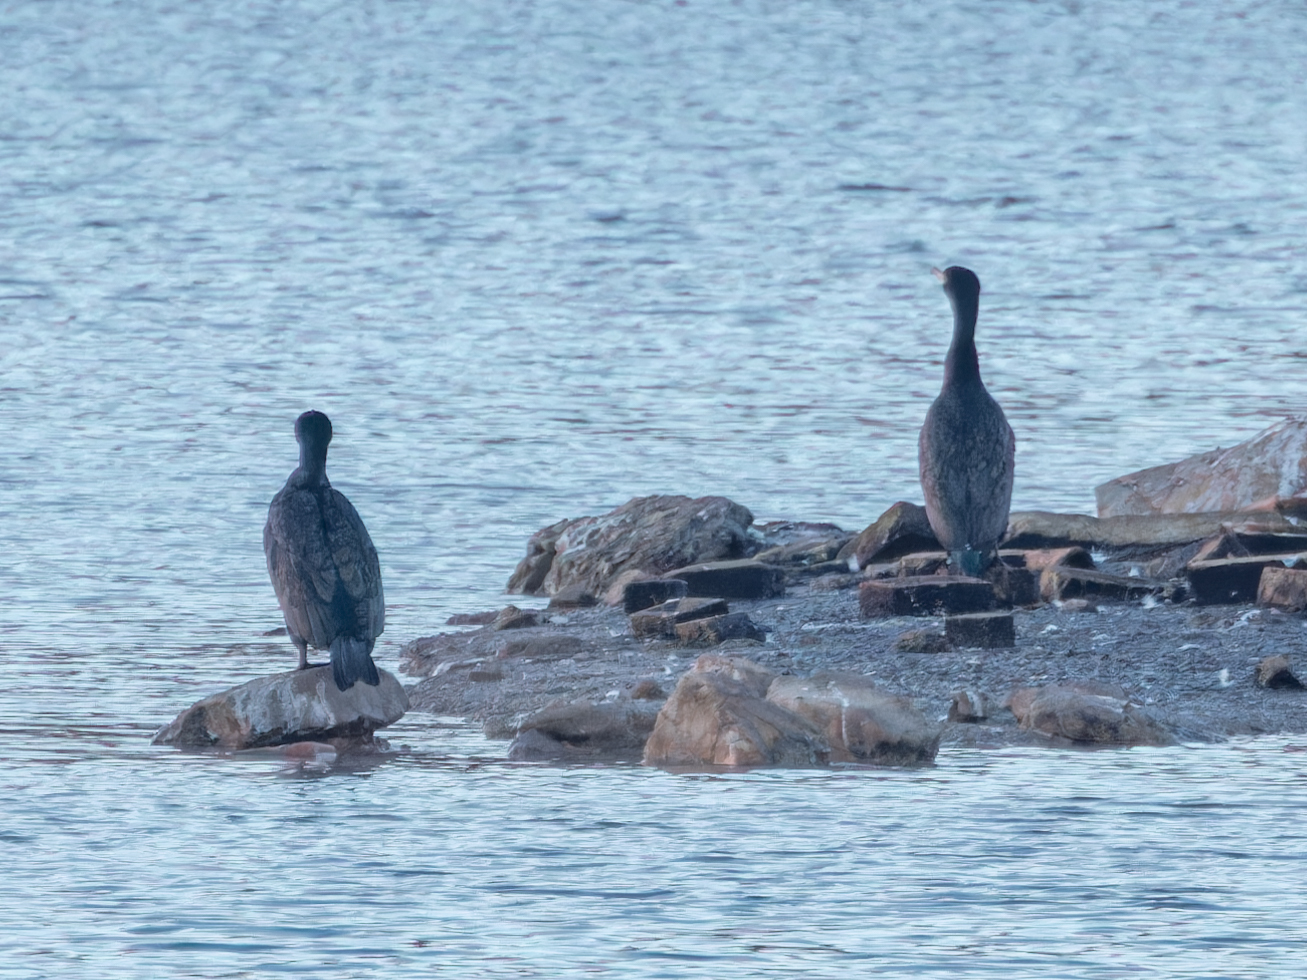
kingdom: Animalia
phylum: Chordata
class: Aves
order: Suliformes
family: Phalacrocoracidae
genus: Phalacrocorax
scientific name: Phalacrocorax carbo
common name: Great cormorant
